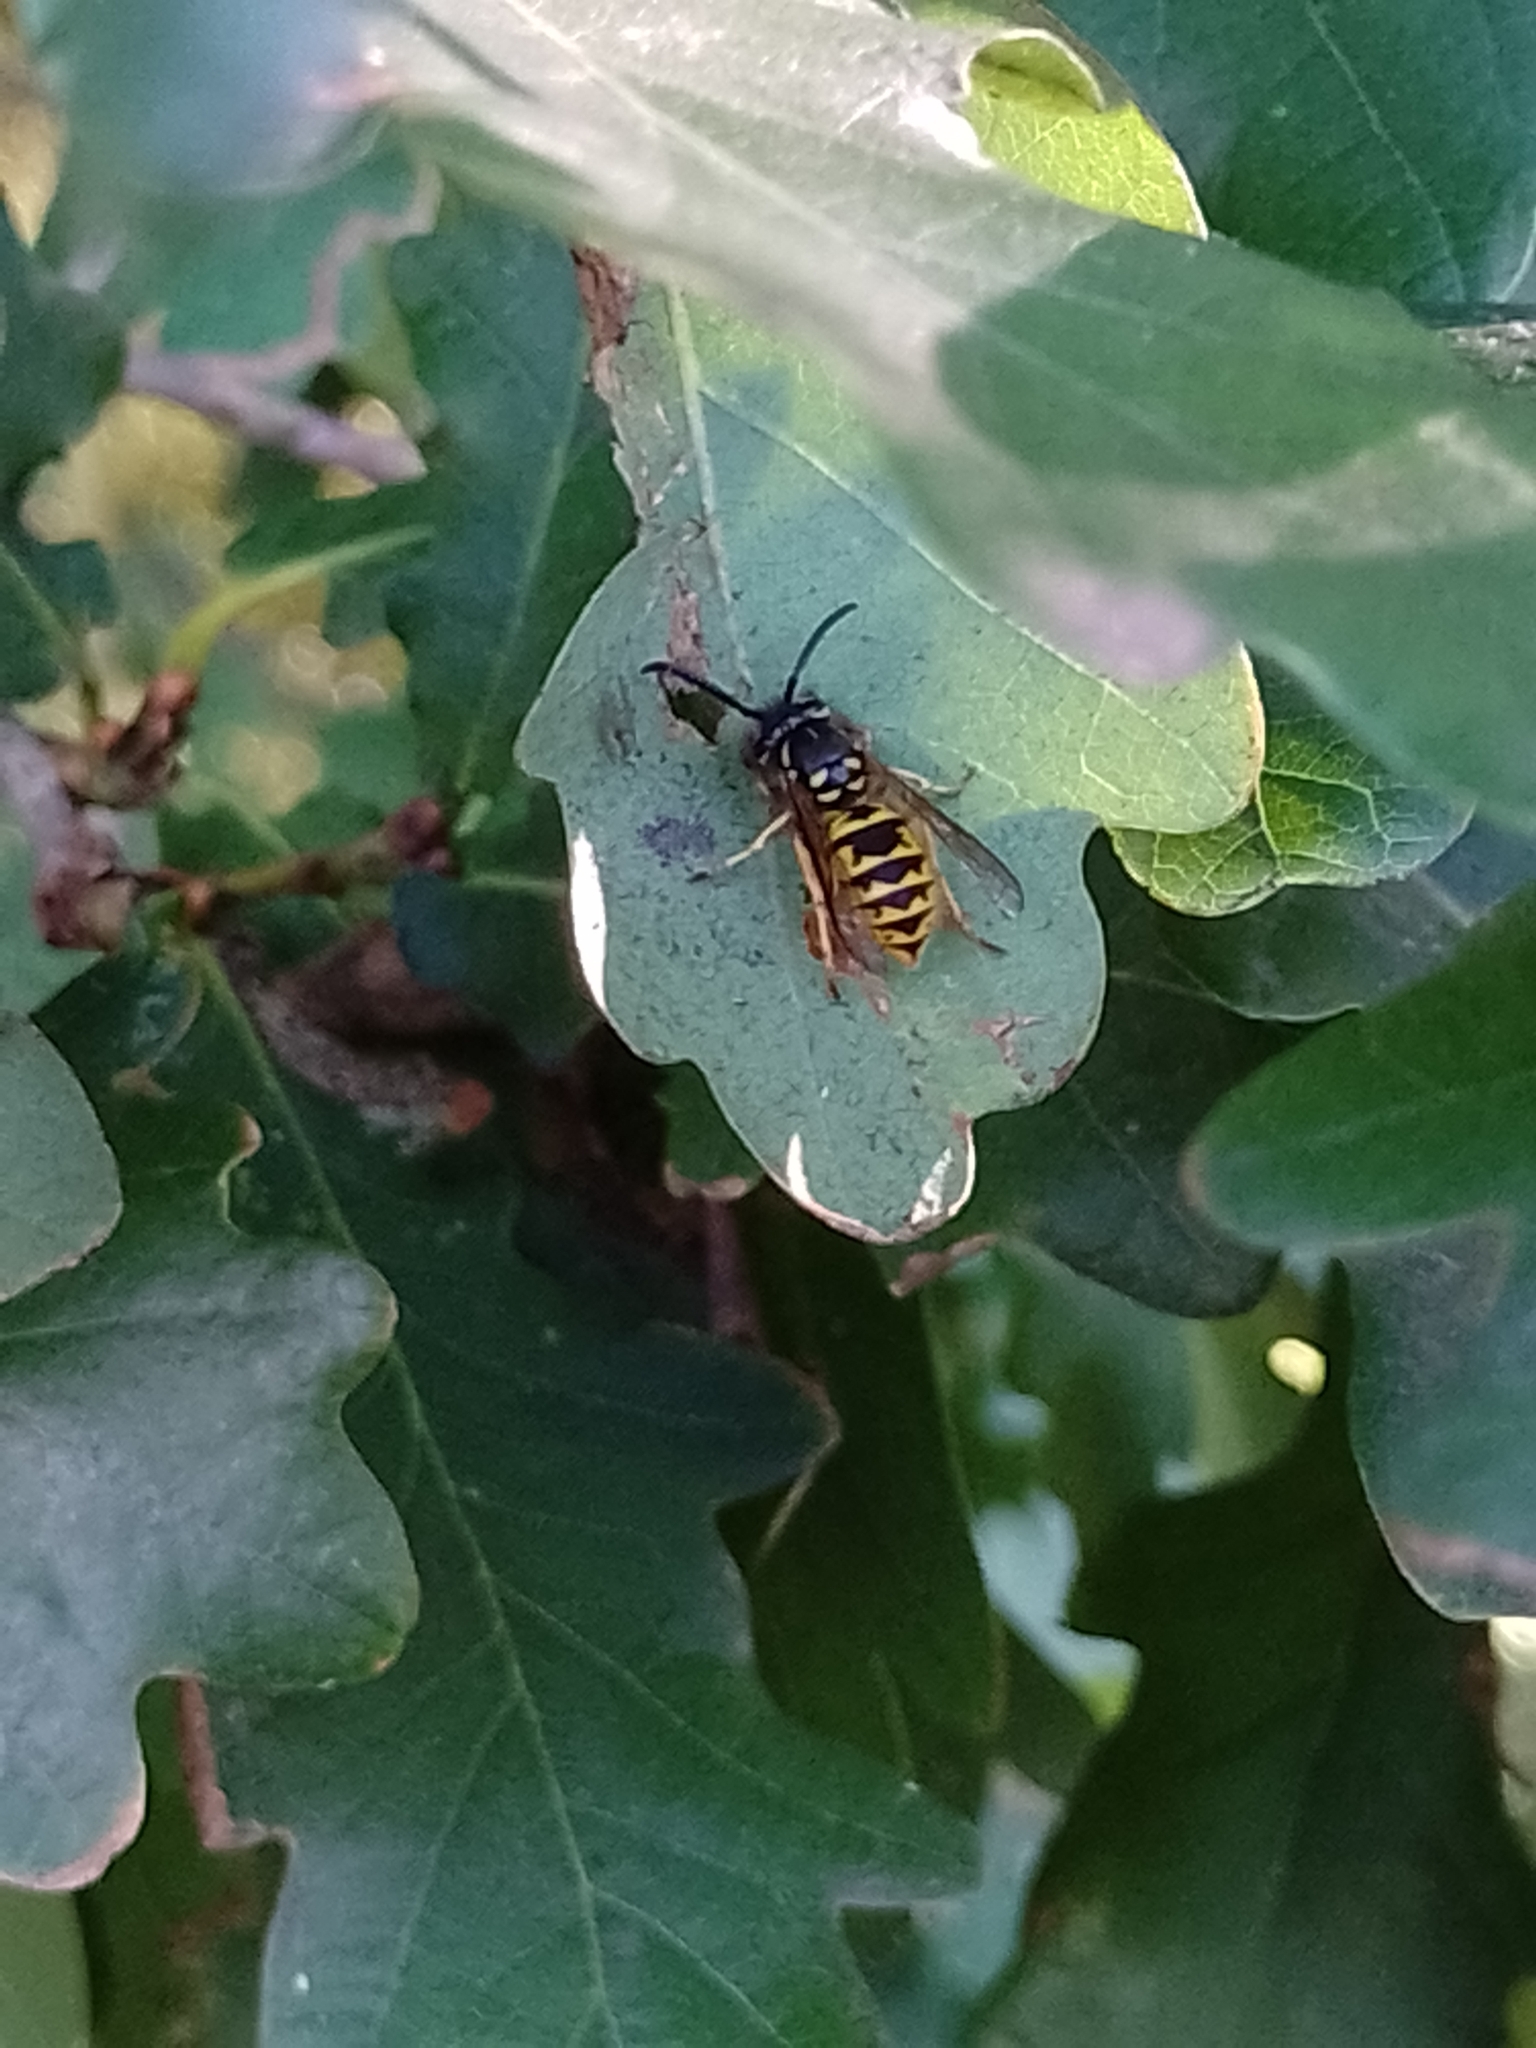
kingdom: Animalia
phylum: Arthropoda
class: Insecta
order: Hymenoptera
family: Vespidae
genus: Vespula
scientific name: Vespula vulgaris
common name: Common wasp
